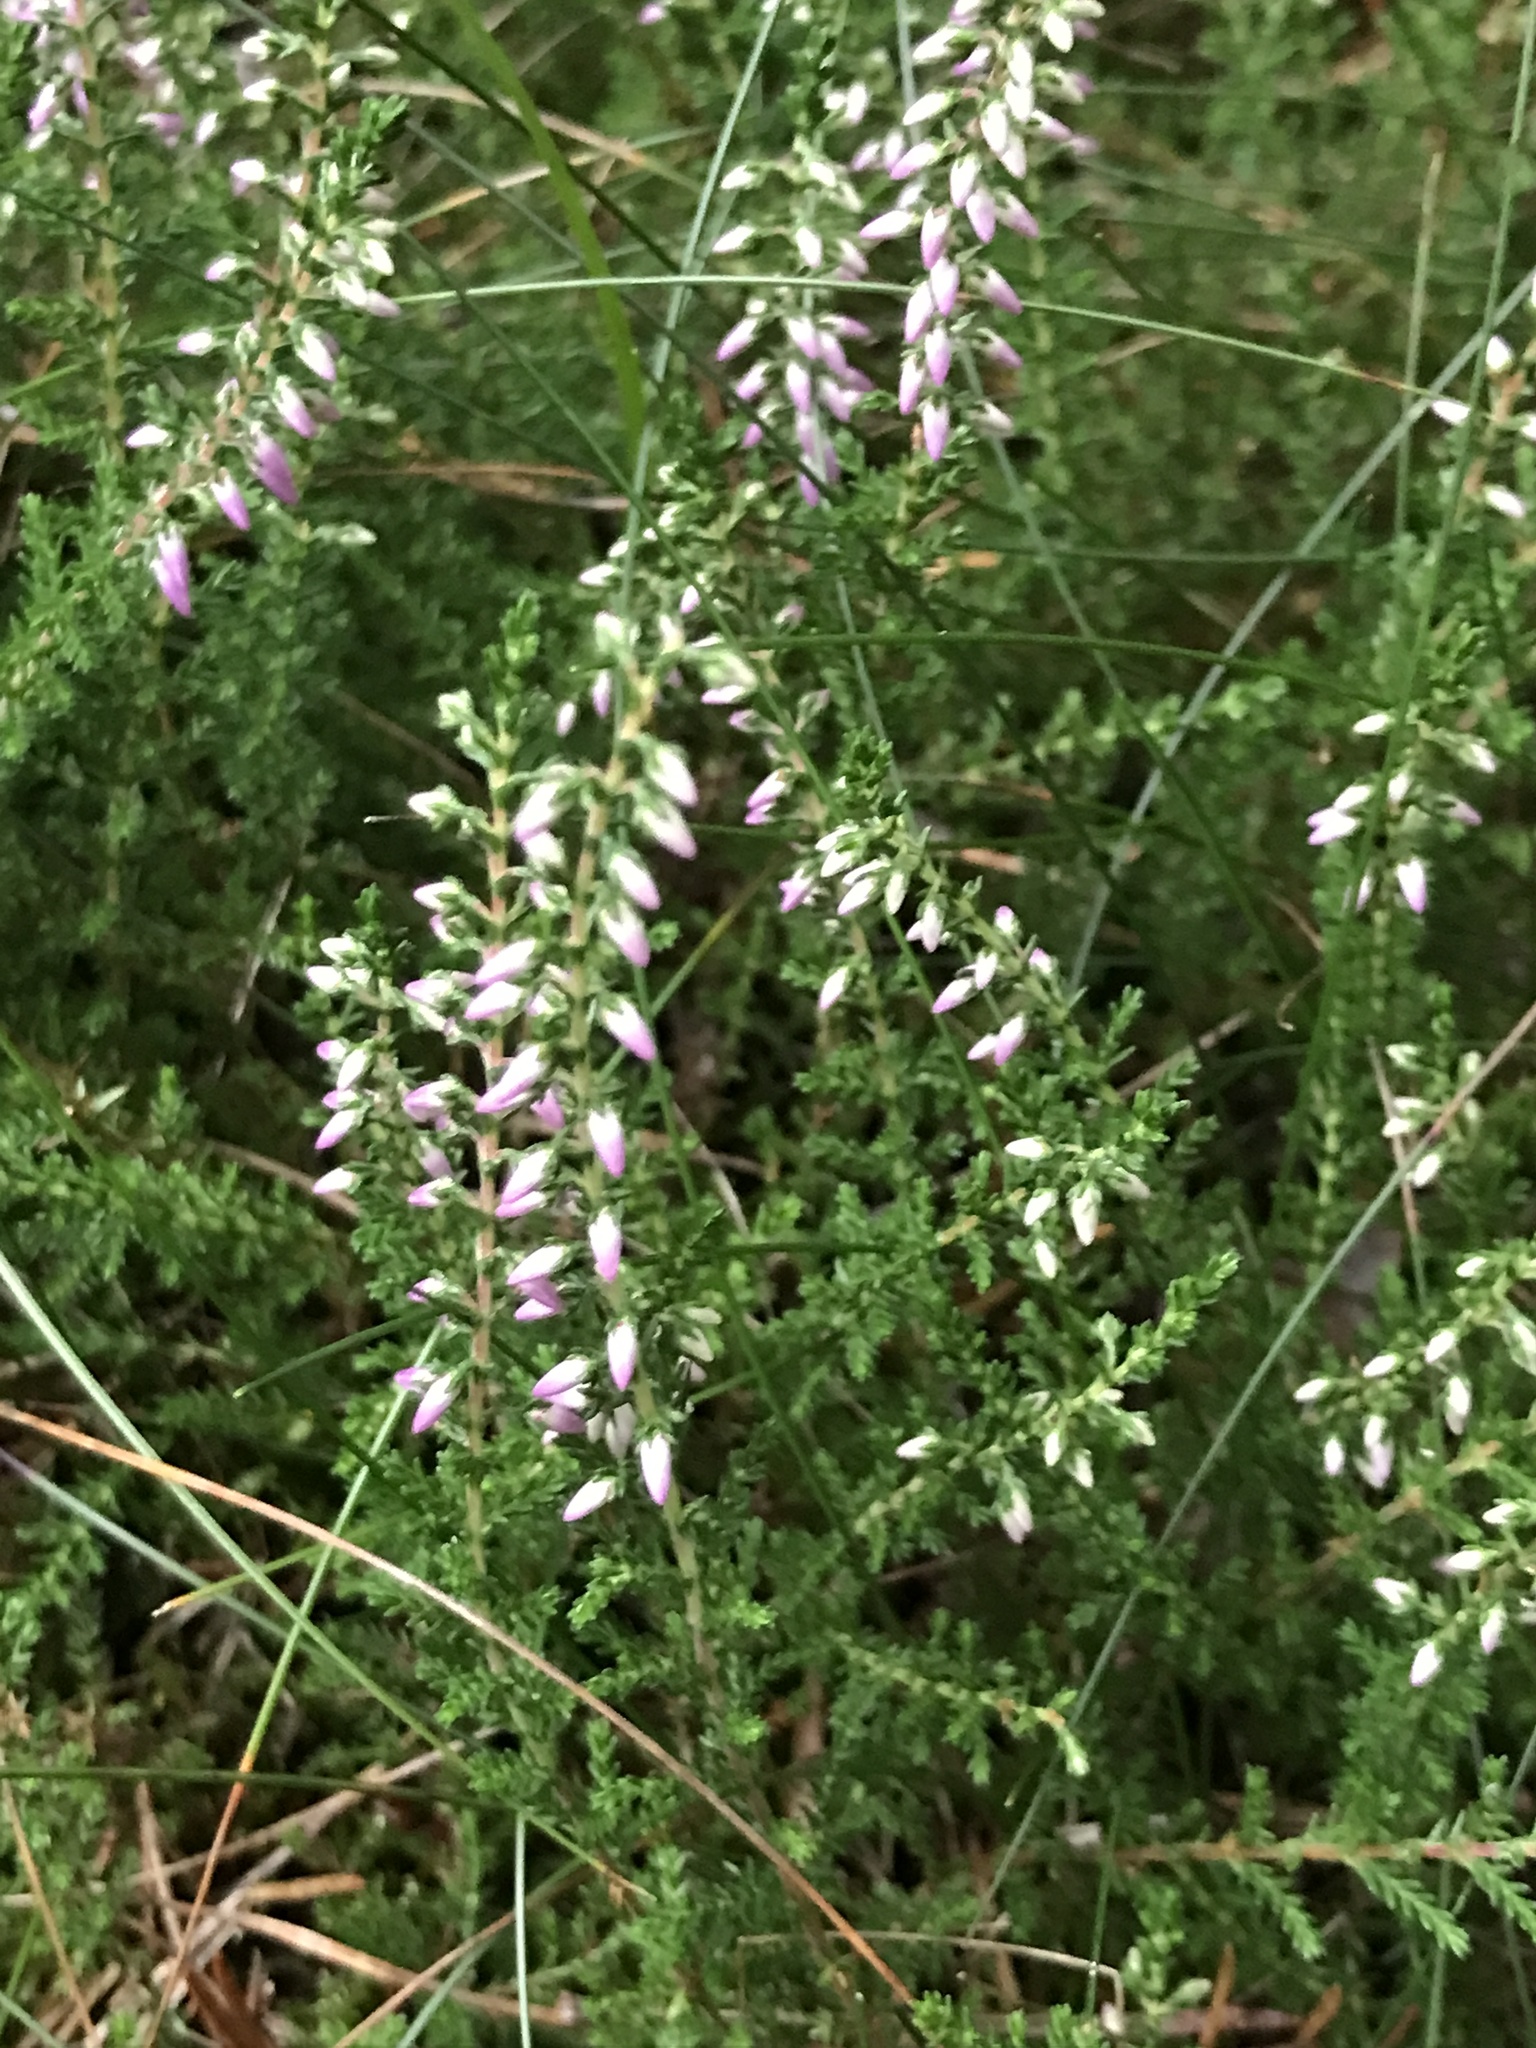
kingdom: Plantae
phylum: Tracheophyta
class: Magnoliopsida
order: Ericales
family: Ericaceae
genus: Calluna
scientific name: Calluna vulgaris
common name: Heather
